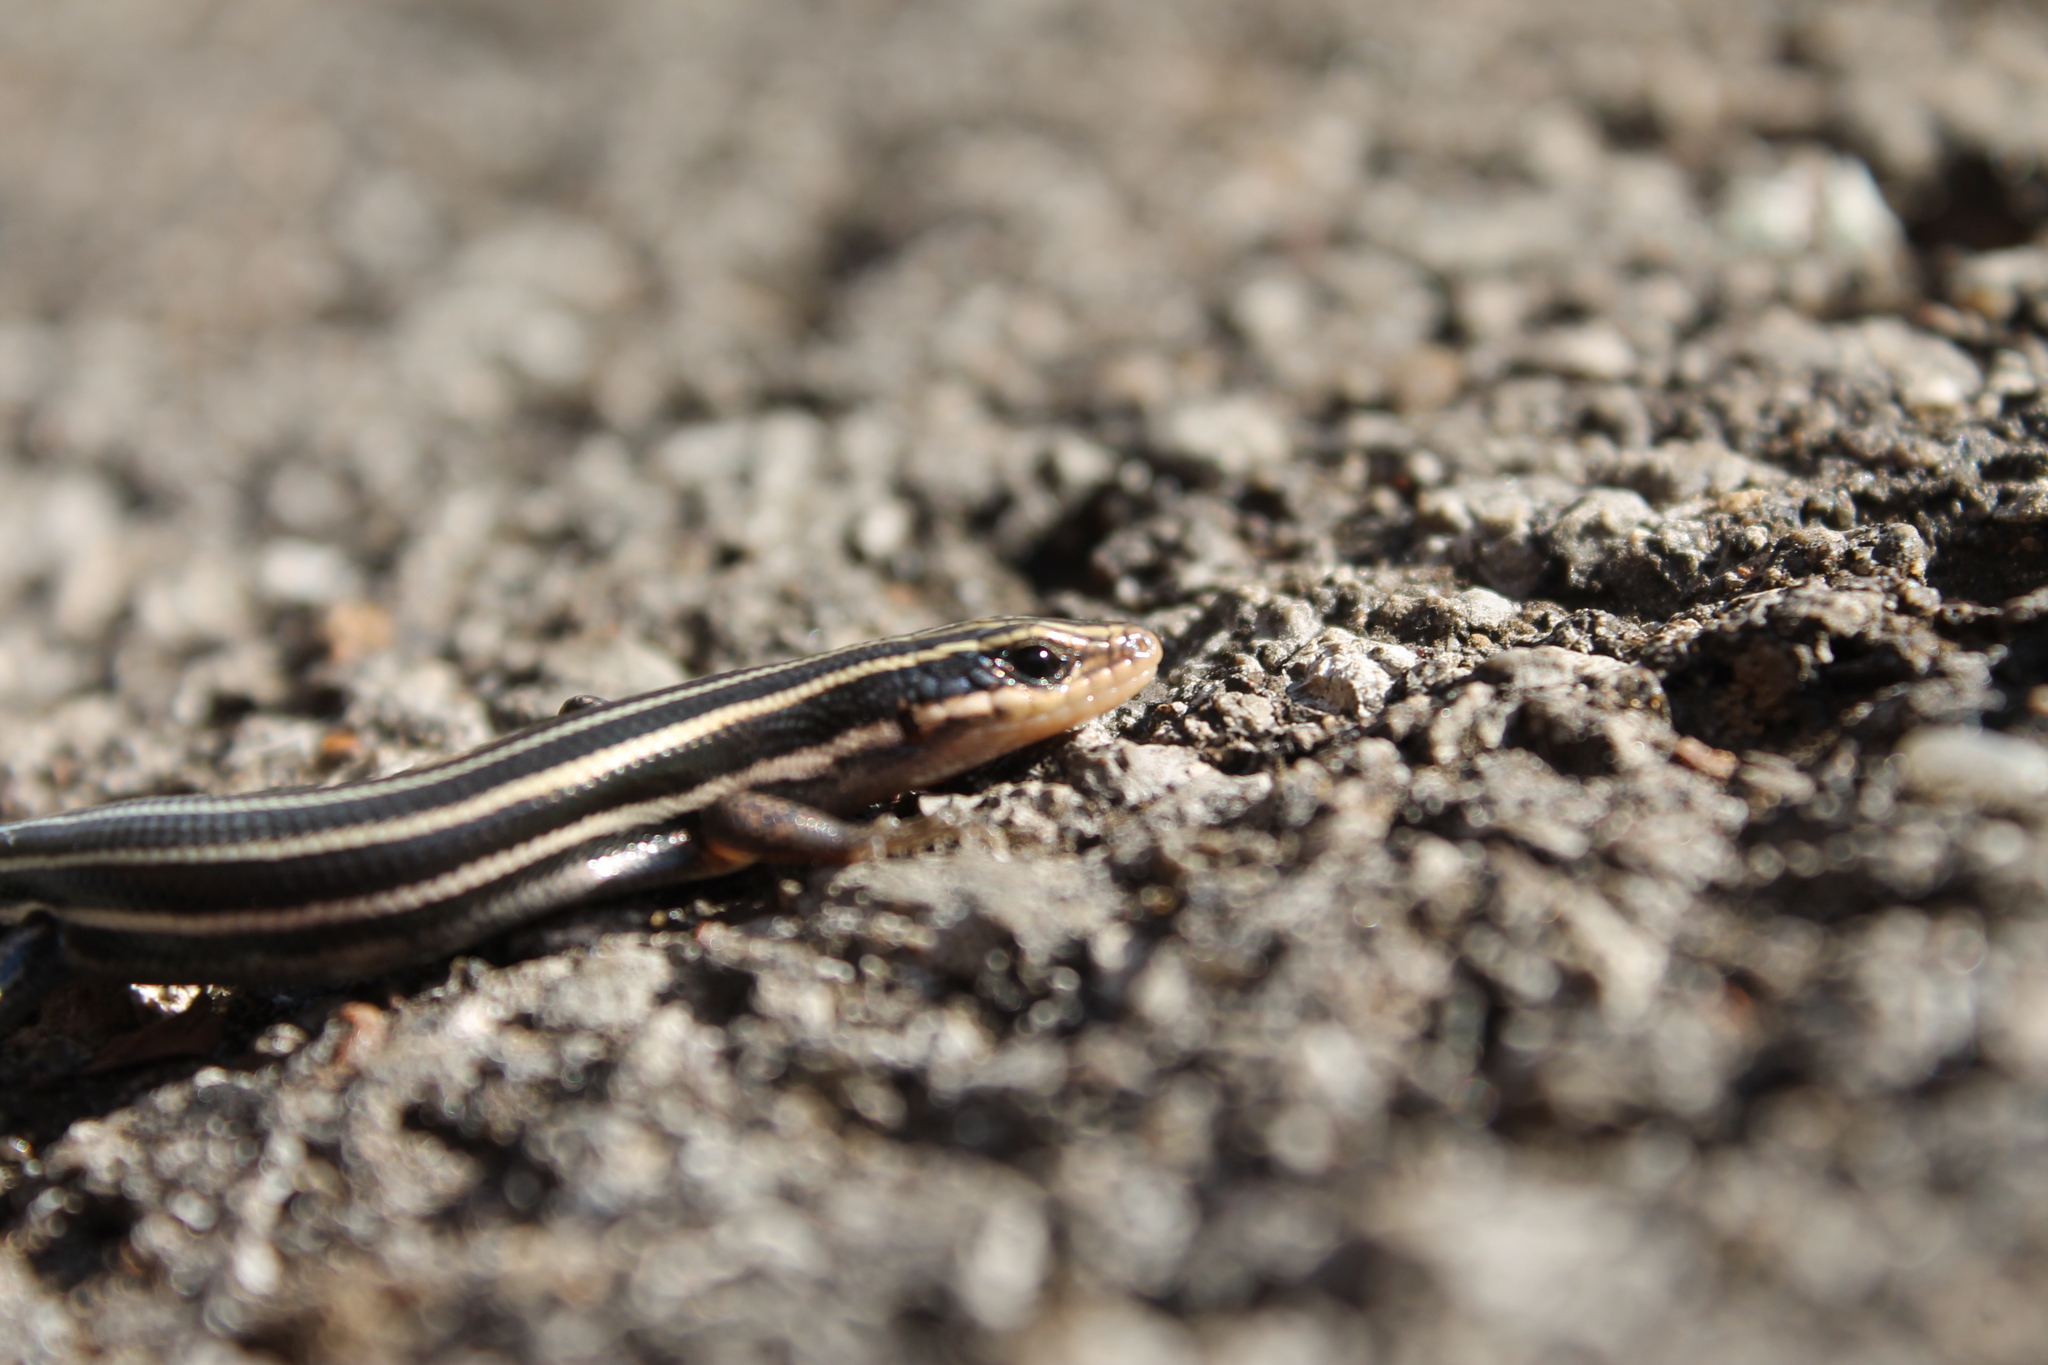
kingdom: Animalia
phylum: Chordata
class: Squamata
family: Scincidae
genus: Plestiodon
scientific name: Plestiodon fasciatus
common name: Five-lined skink
